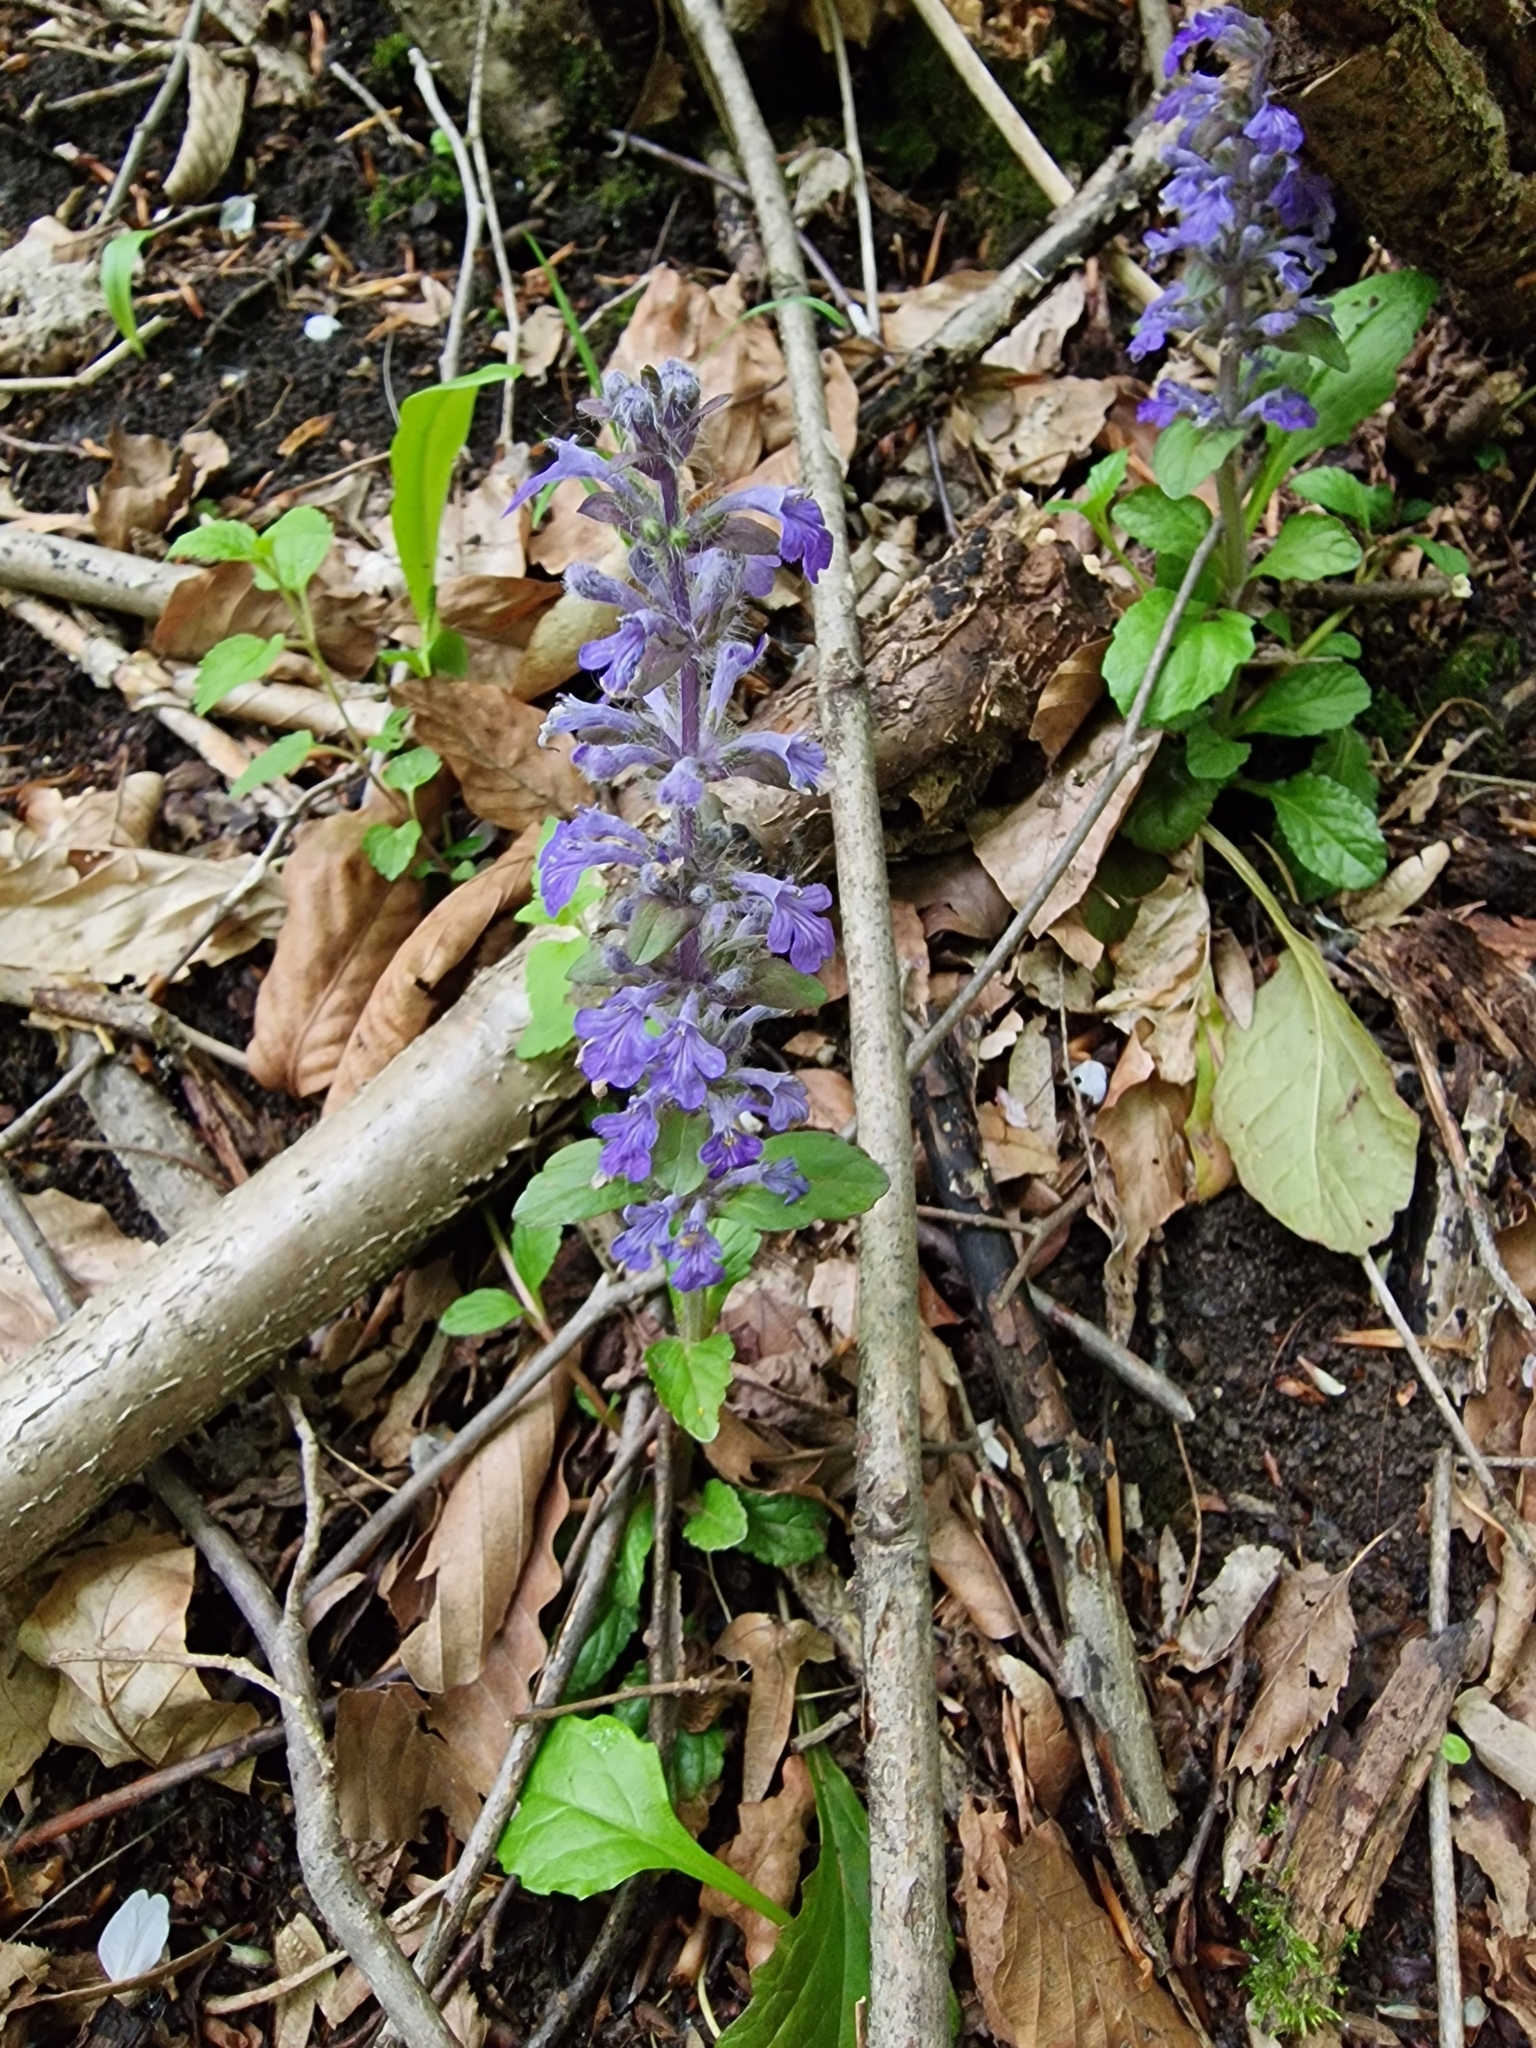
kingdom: Plantae
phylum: Tracheophyta
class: Magnoliopsida
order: Lamiales
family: Lamiaceae
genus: Ajuga
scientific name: Ajuga reptans
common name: Bugle
